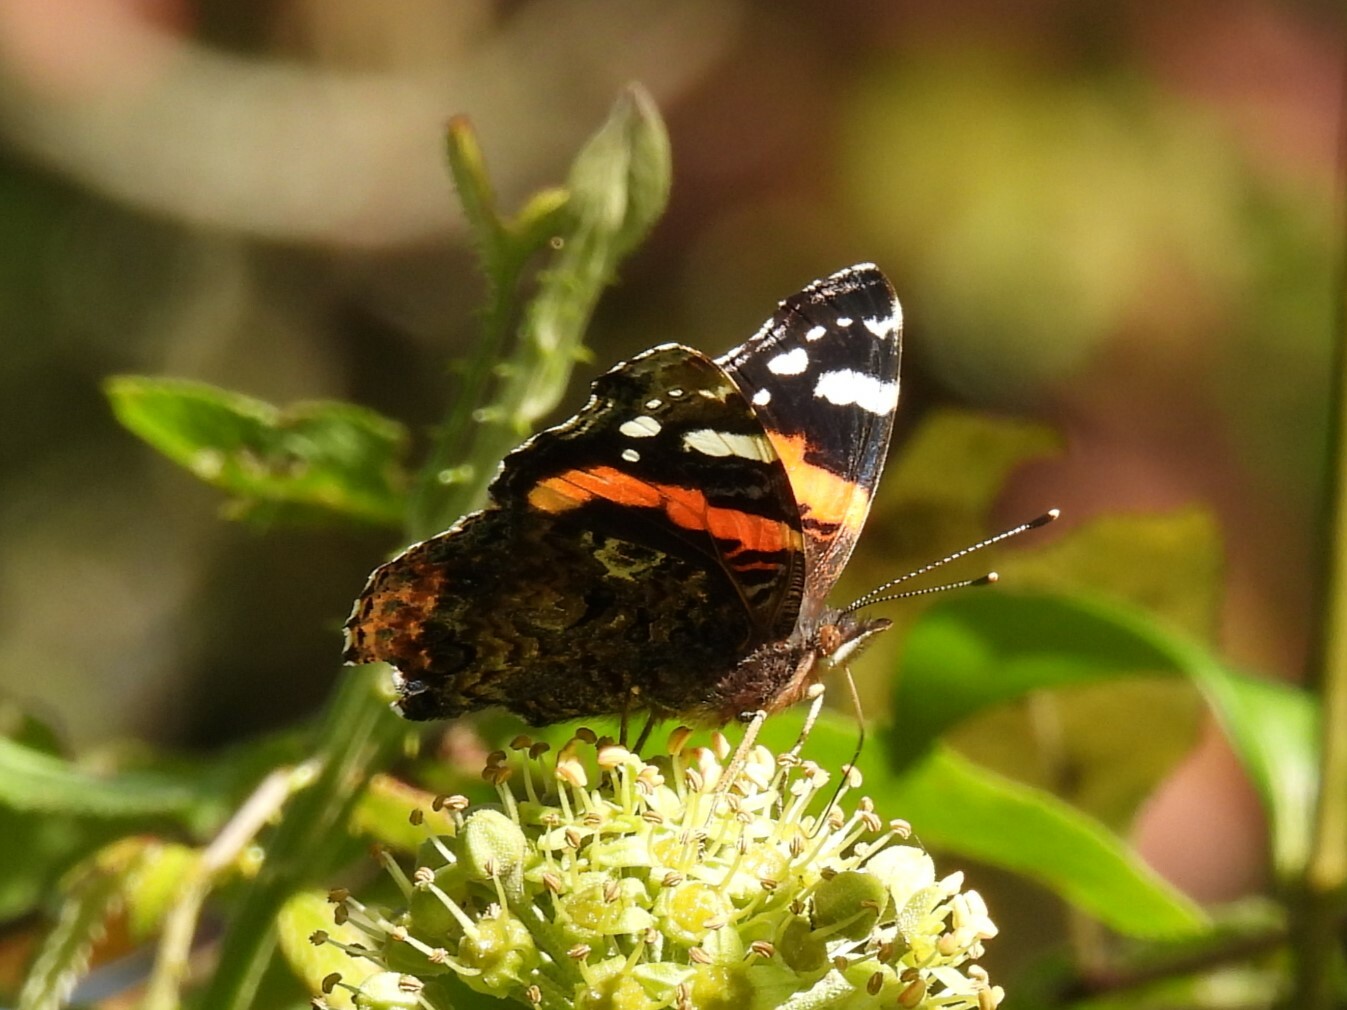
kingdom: Animalia
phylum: Arthropoda
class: Insecta
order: Lepidoptera
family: Nymphalidae
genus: Vanessa
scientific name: Vanessa atalanta
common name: Red admiral
